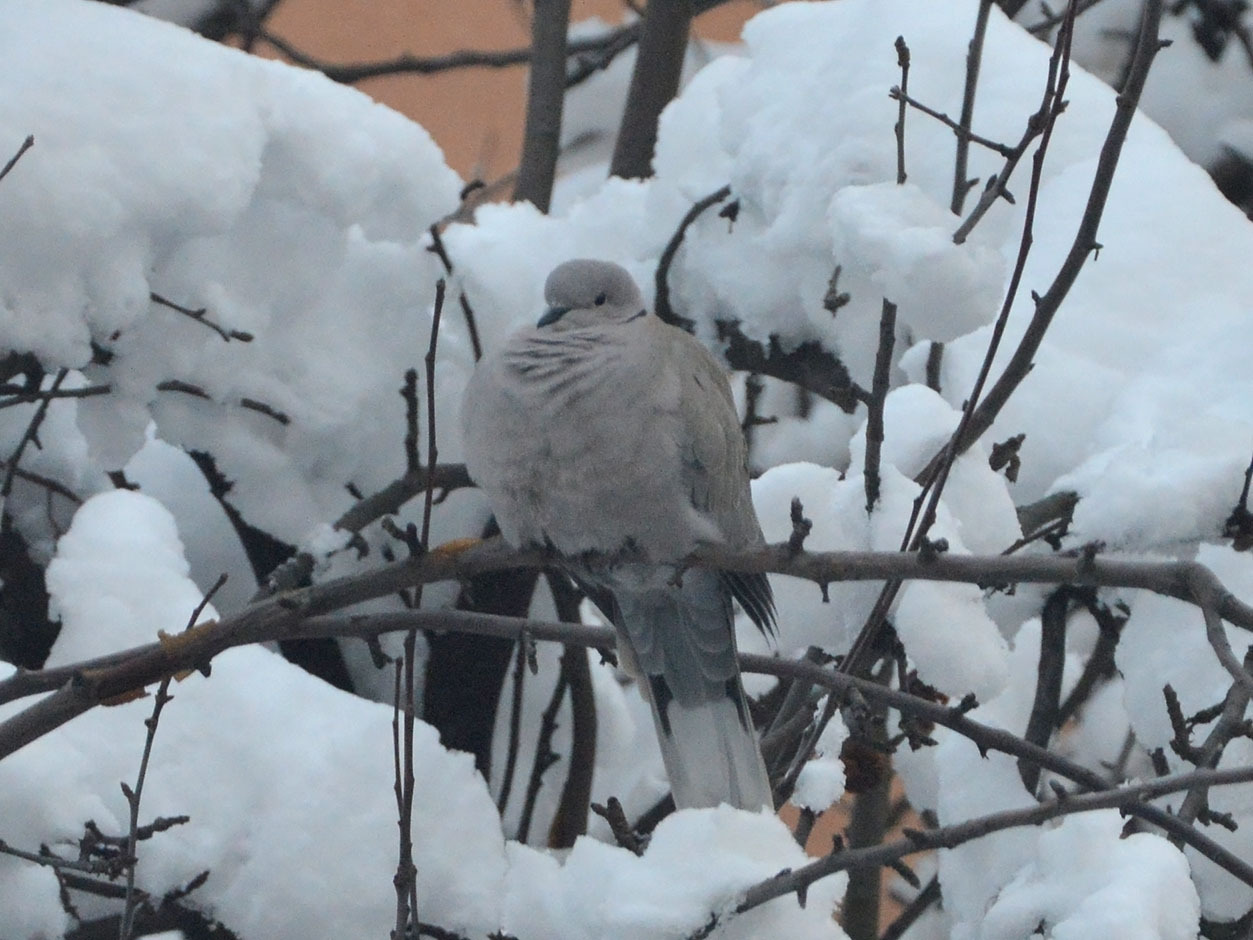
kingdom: Animalia
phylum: Chordata
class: Aves
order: Columbiformes
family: Columbidae
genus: Streptopelia
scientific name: Streptopelia decaocto
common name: Eurasian collared dove
